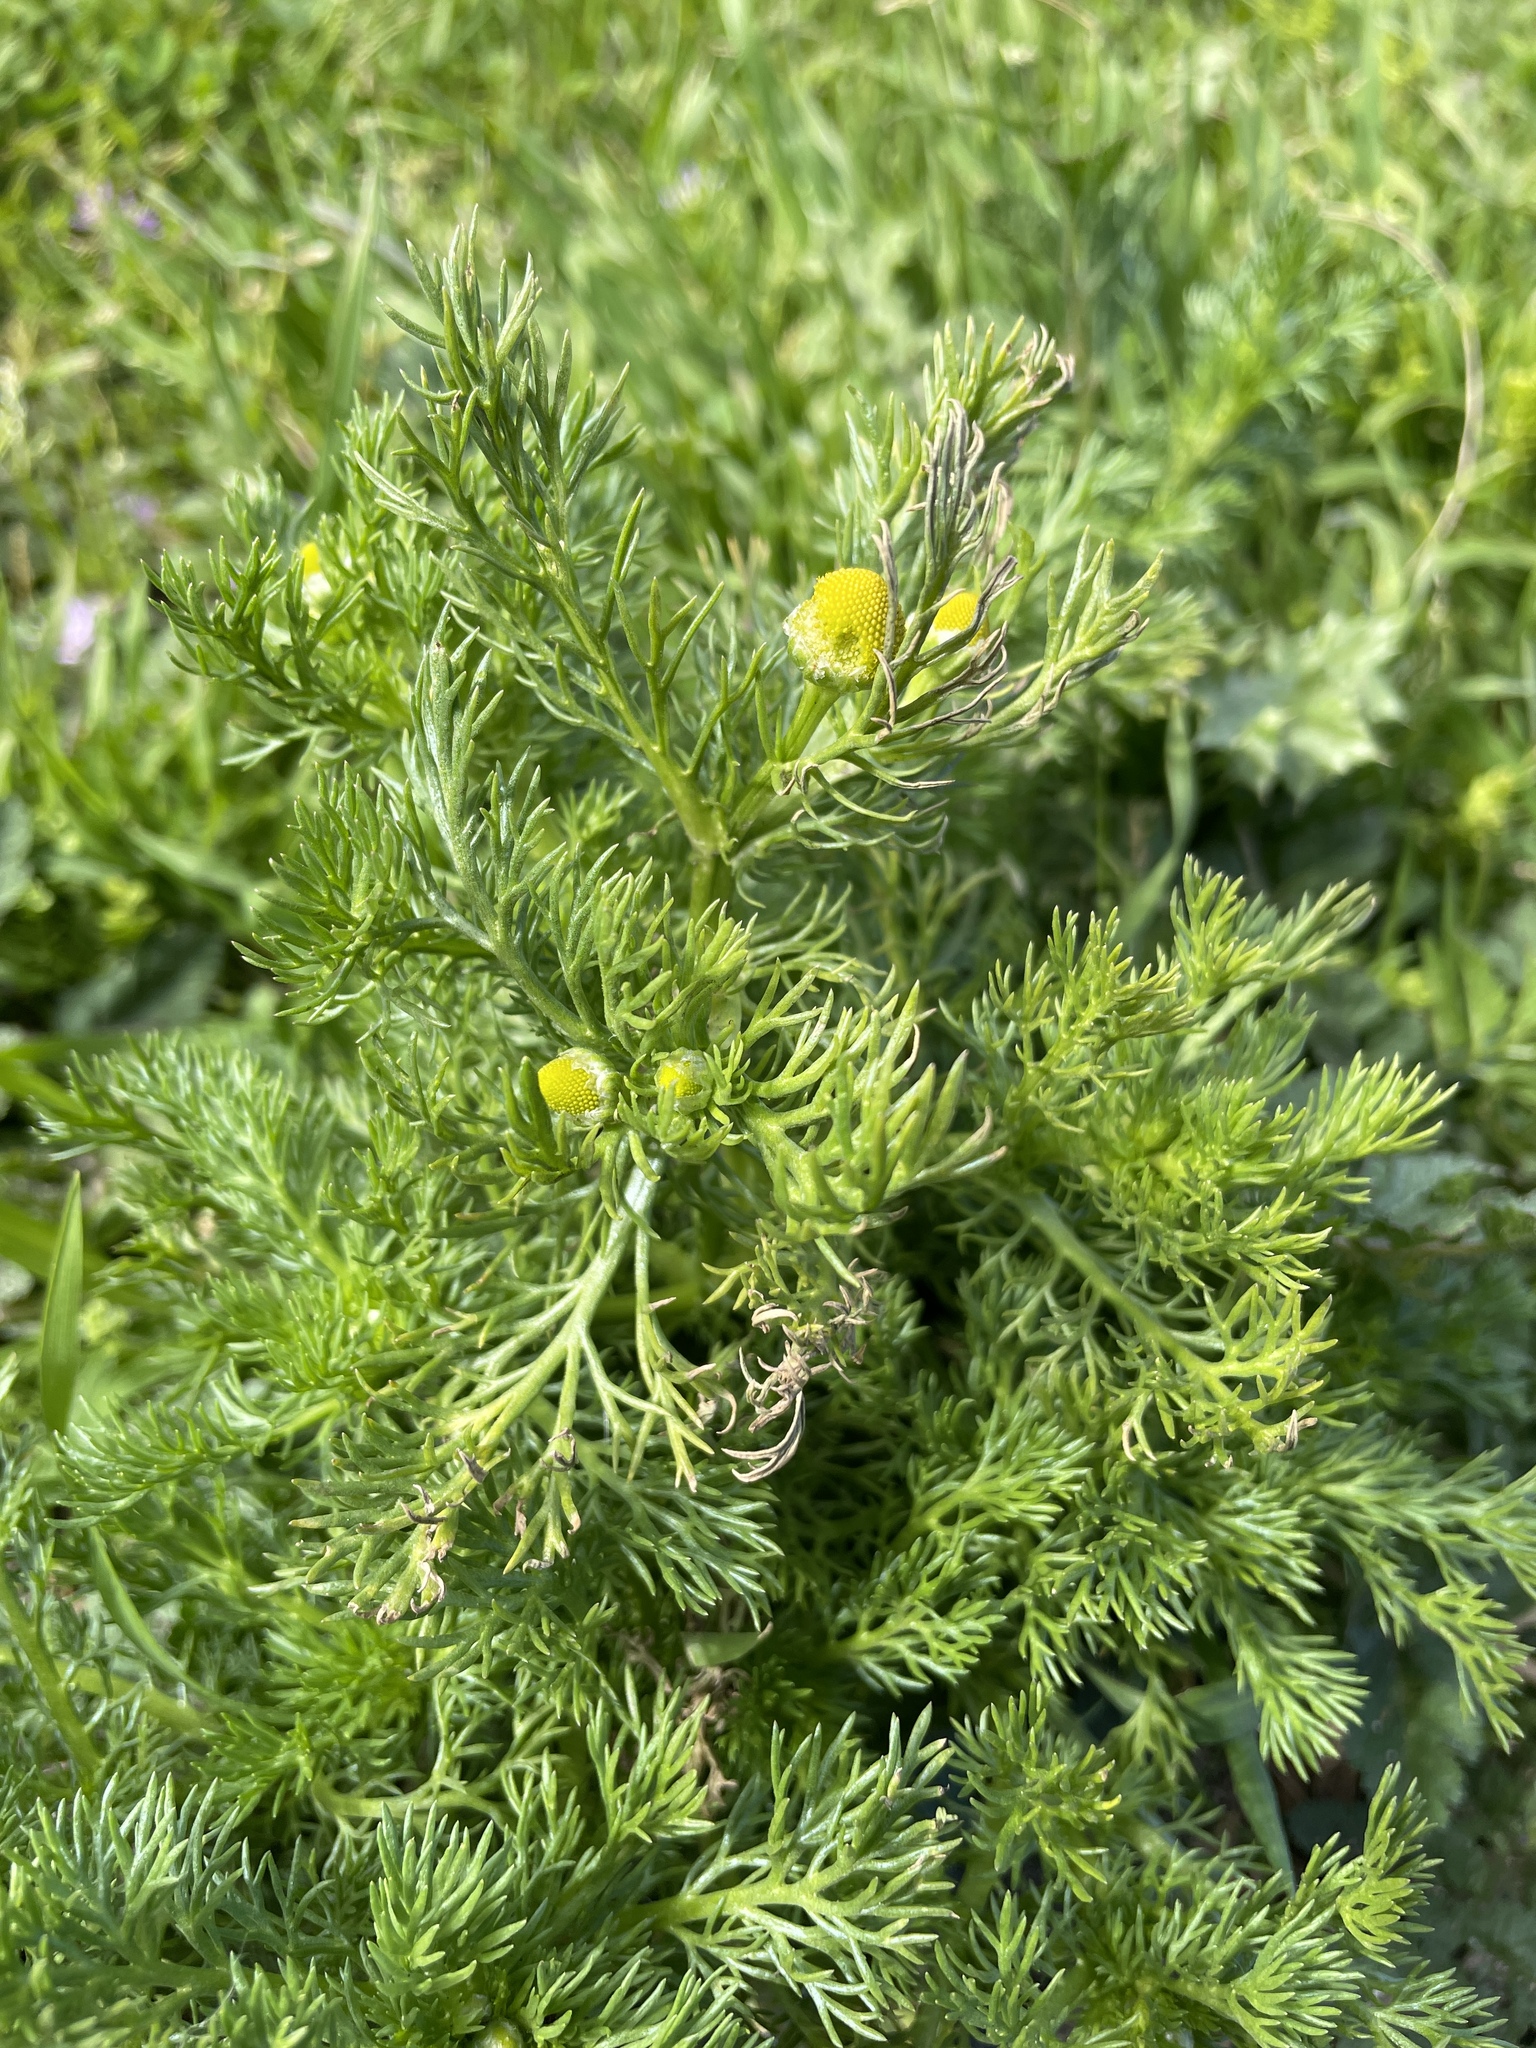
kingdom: Plantae
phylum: Tracheophyta
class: Magnoliopsida
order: Asterales
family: Asteraceae
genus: Matricaria
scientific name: Matricaria discoidea
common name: Disc mayweed
